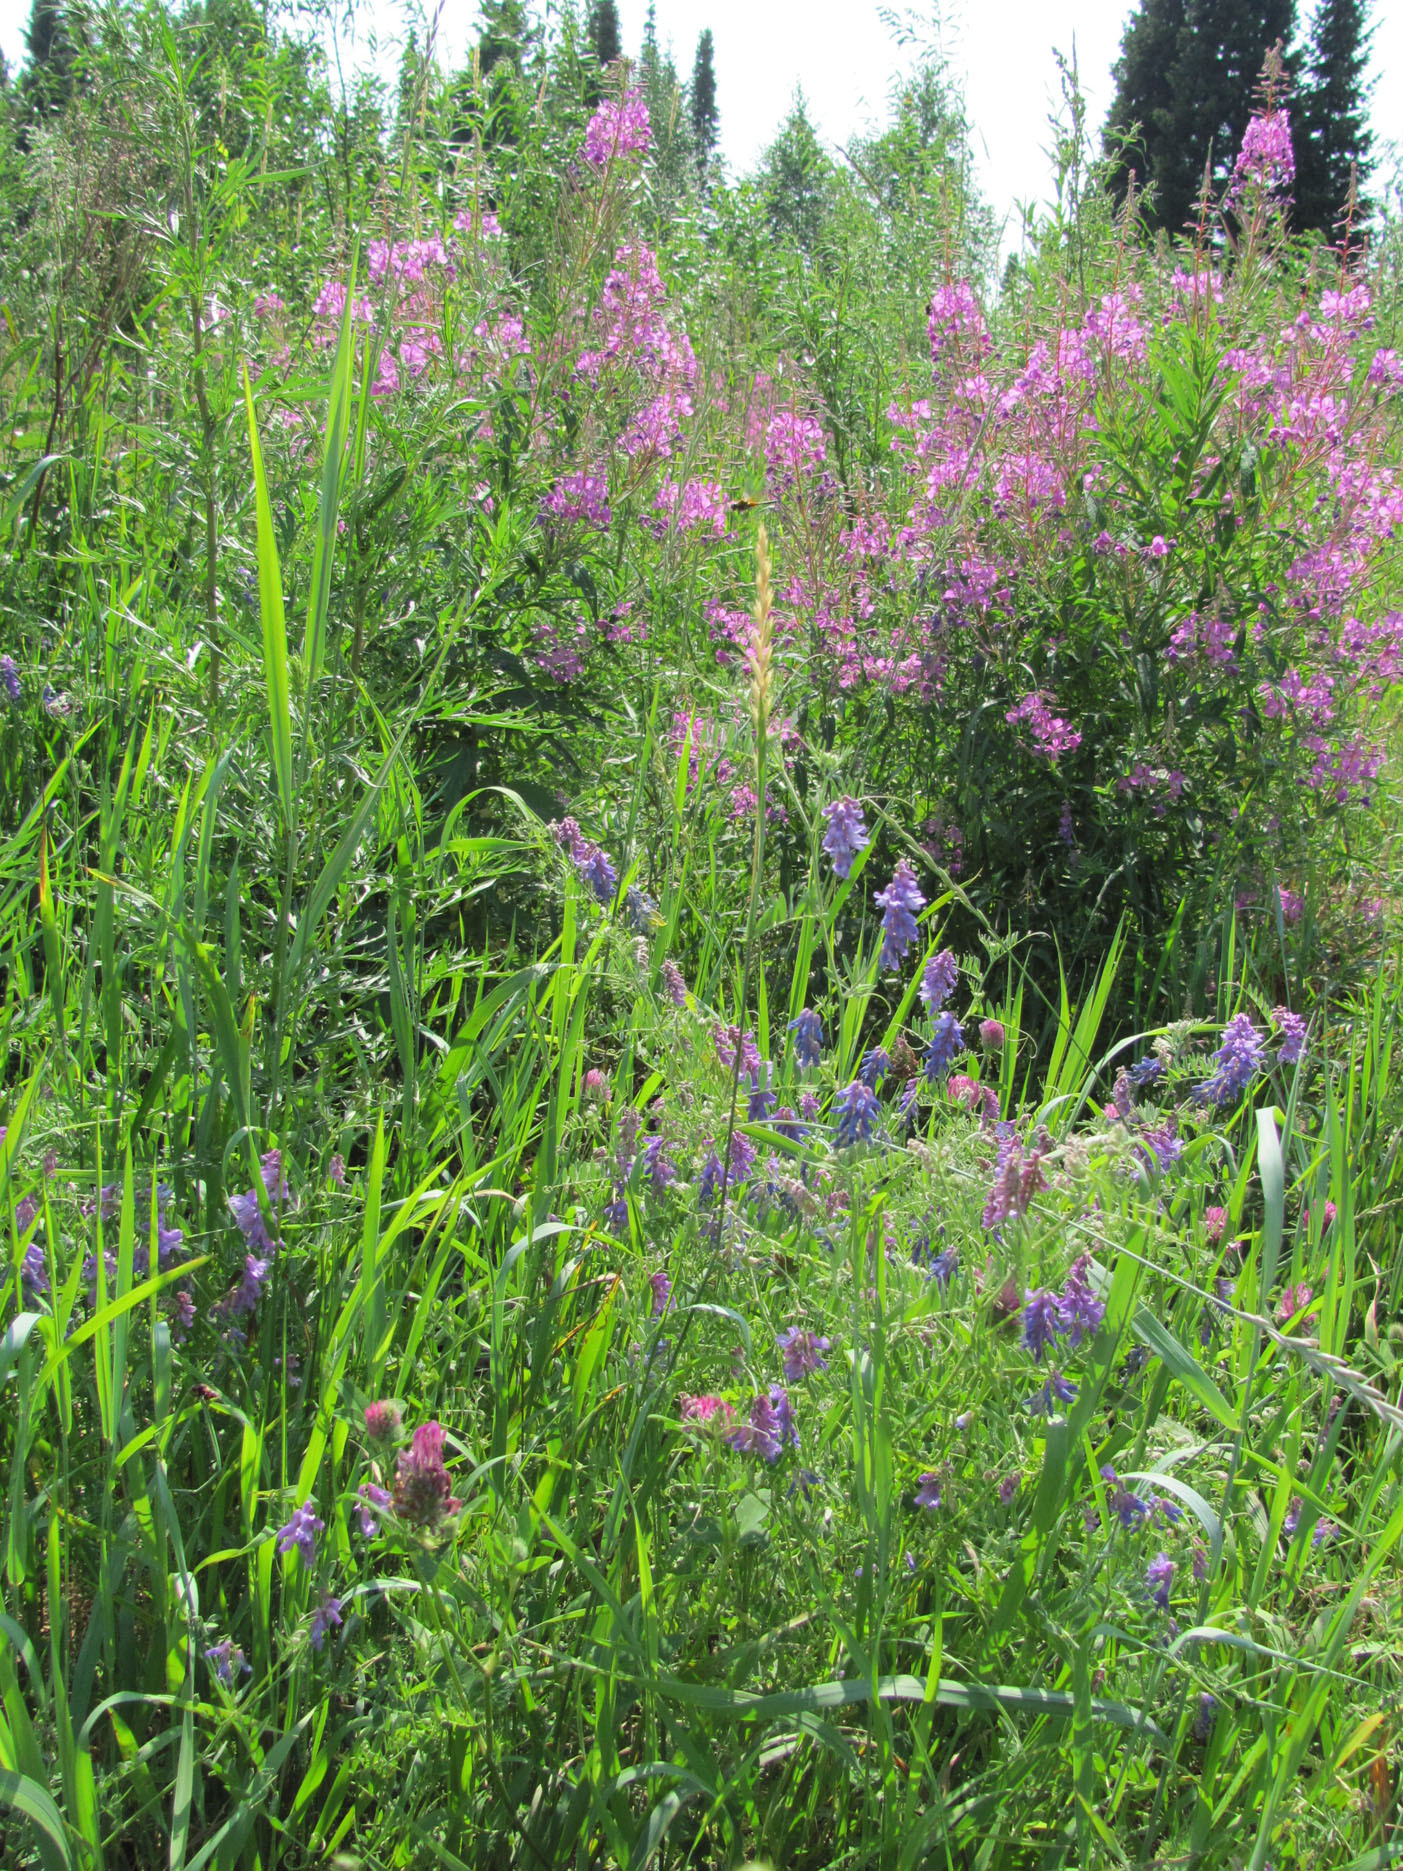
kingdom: Plantae
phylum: Tracheophyta
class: Magnoliopsida
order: Fabales
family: Fabaceae
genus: Vicia
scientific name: Vicia cracca
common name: Bird vetch
